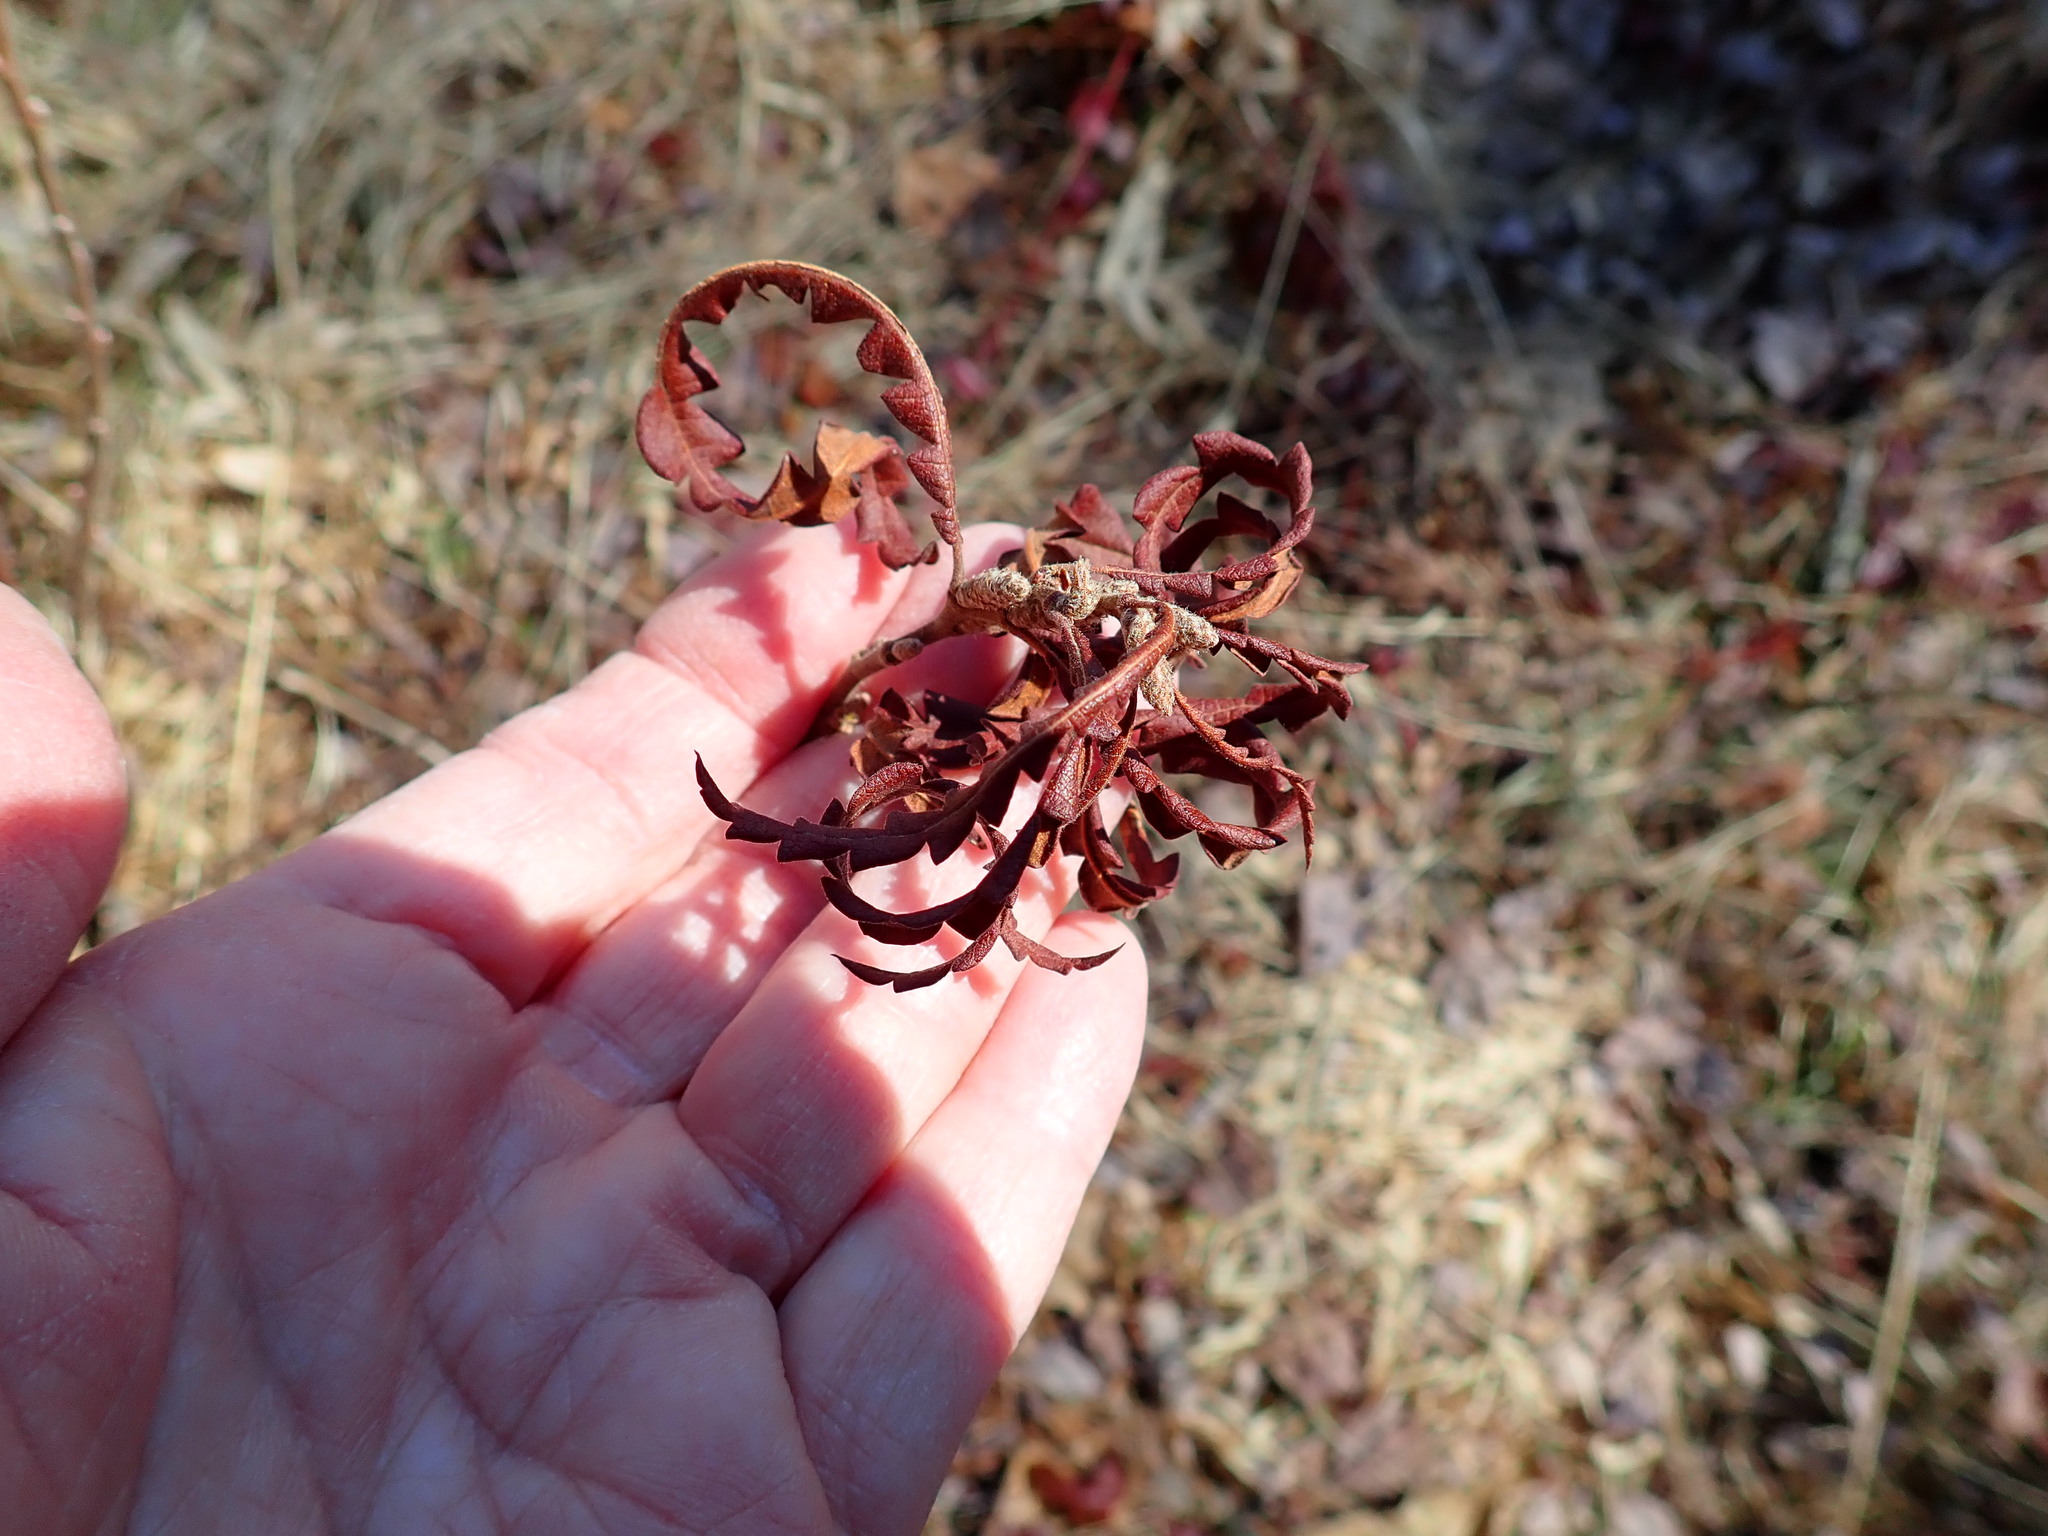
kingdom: Plantae
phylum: Tracheophyta
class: Magnoliopsida
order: Fagales
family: Myricaceae
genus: Comptonia
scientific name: Comptonia peregrina
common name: Sweet-fern
